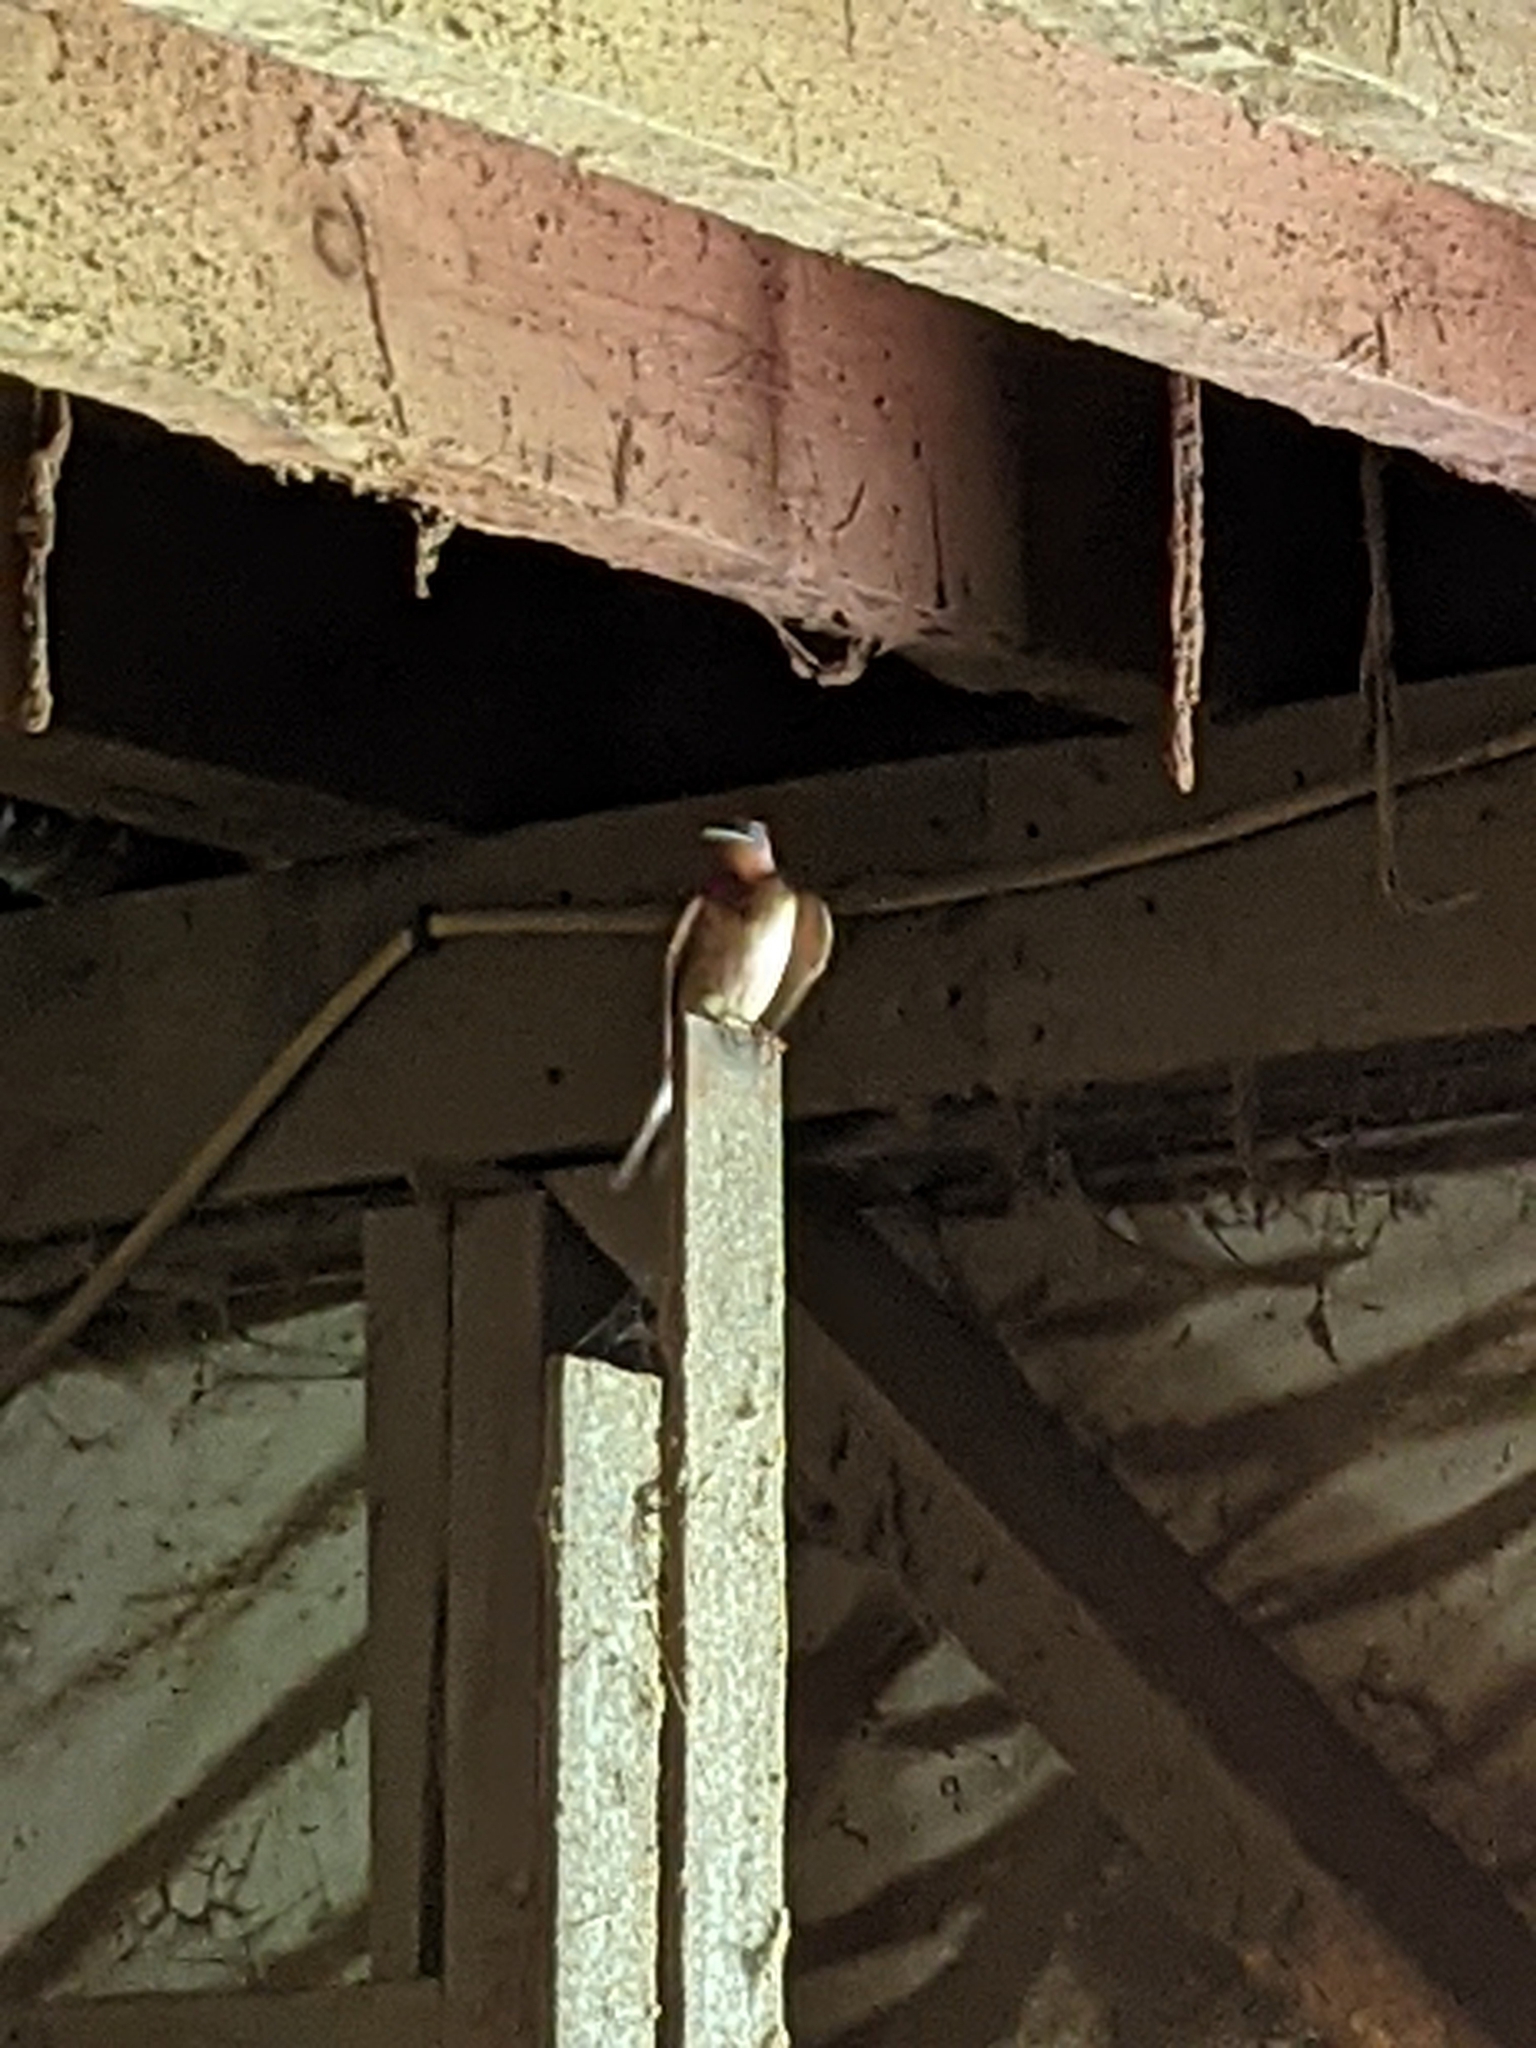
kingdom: Animalia
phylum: Chordata
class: Aves
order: Passeriformes
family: Hirundinidae
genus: Hirundo
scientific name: Hirundo rustica
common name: Barn swallow
